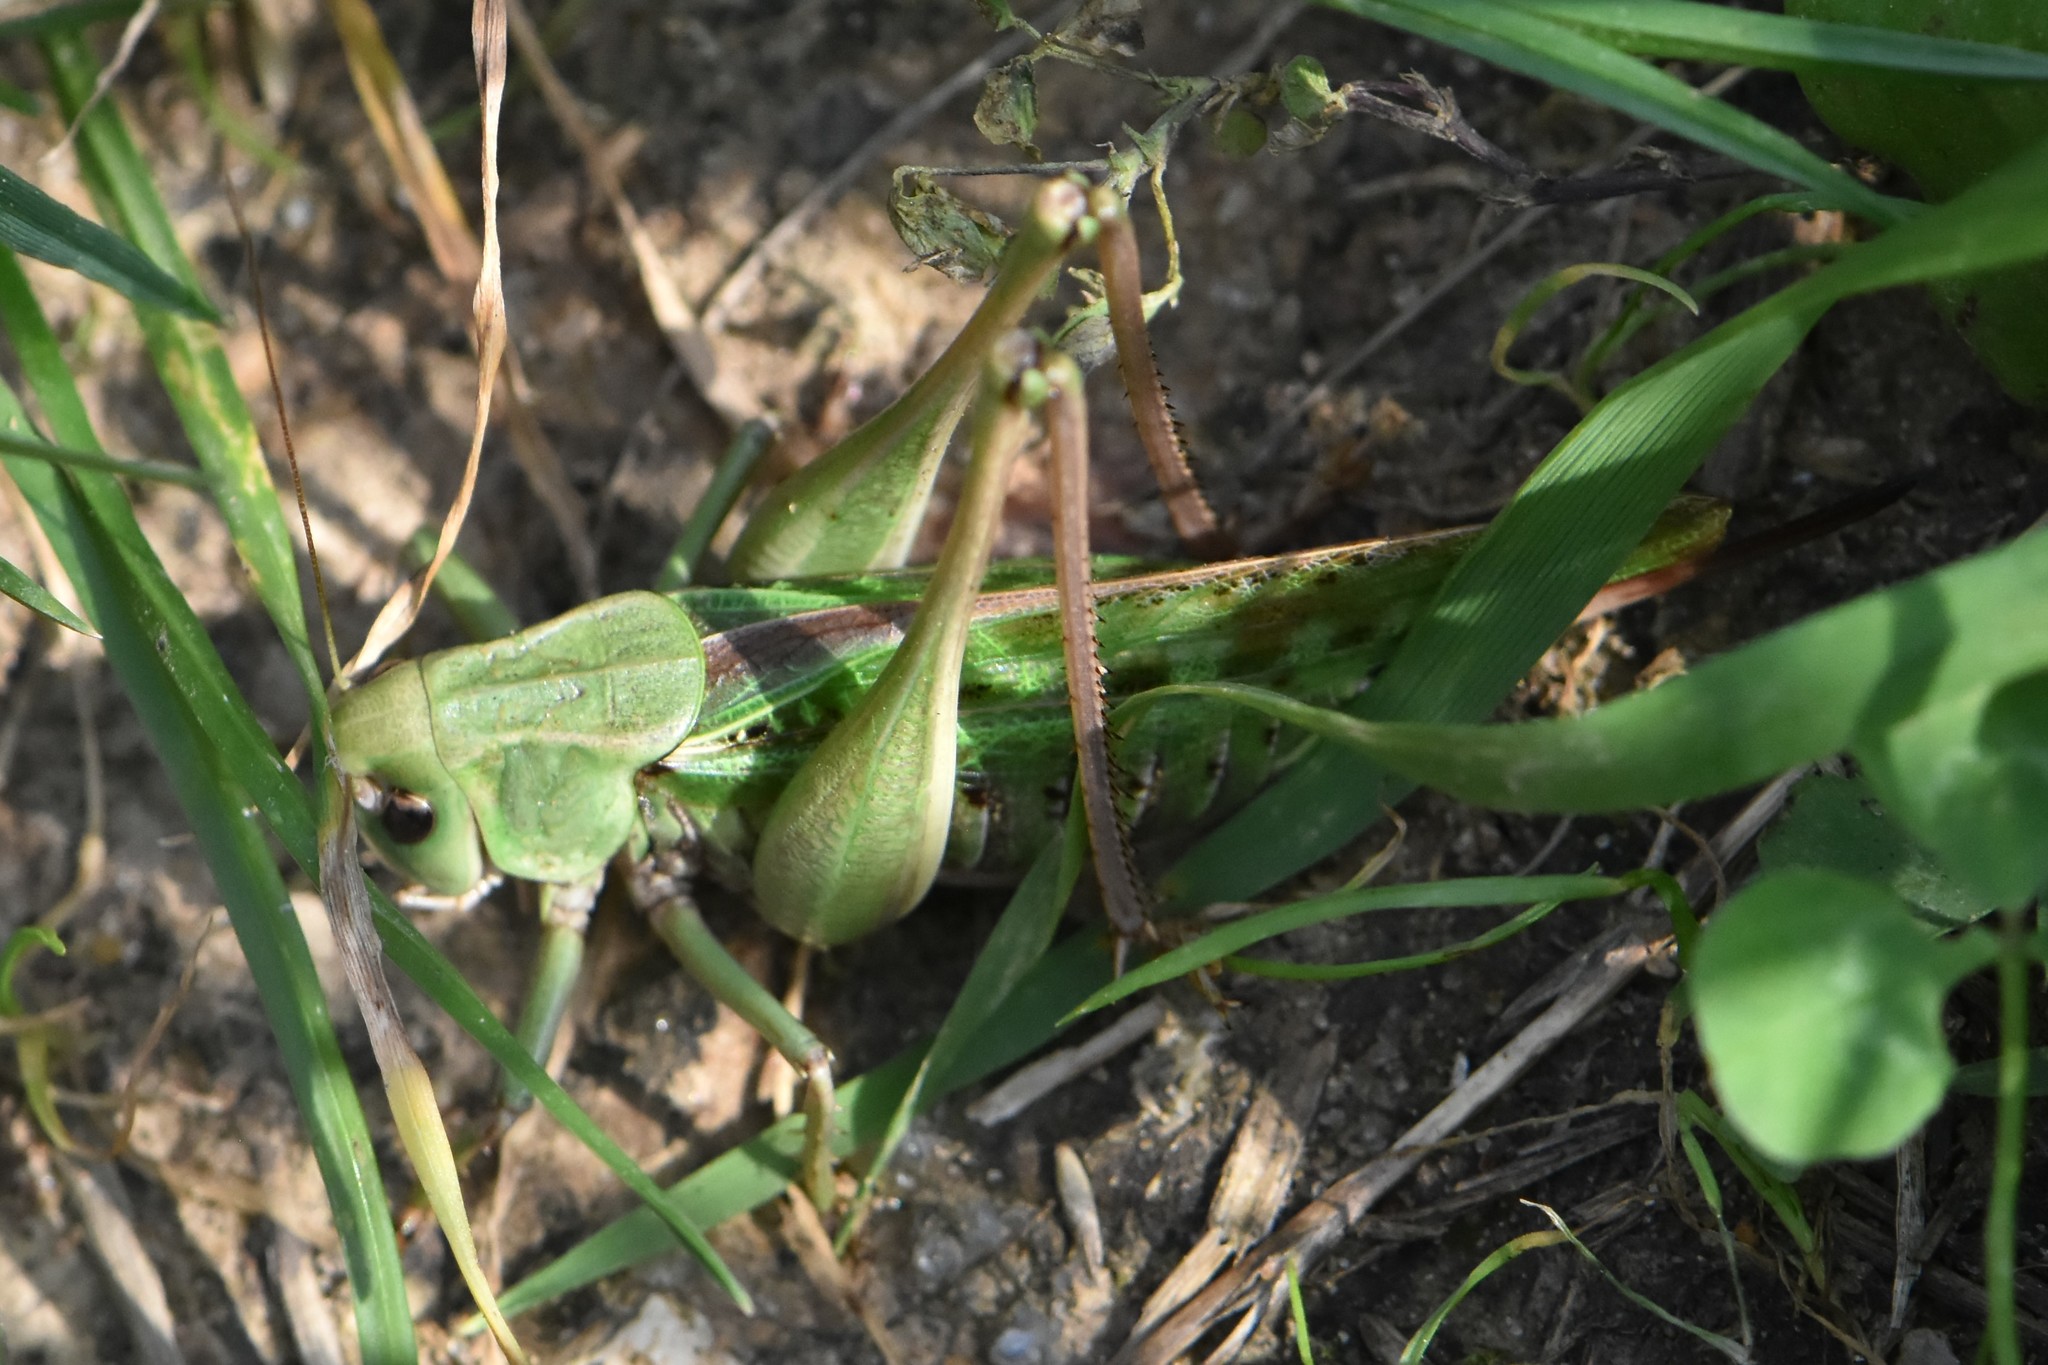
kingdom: Animalia
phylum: Arthropoda
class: Insecta
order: Orthoptera
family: Tettigoniidae
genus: Decticus
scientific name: Decticus verrucivorus
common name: Wart-biter
